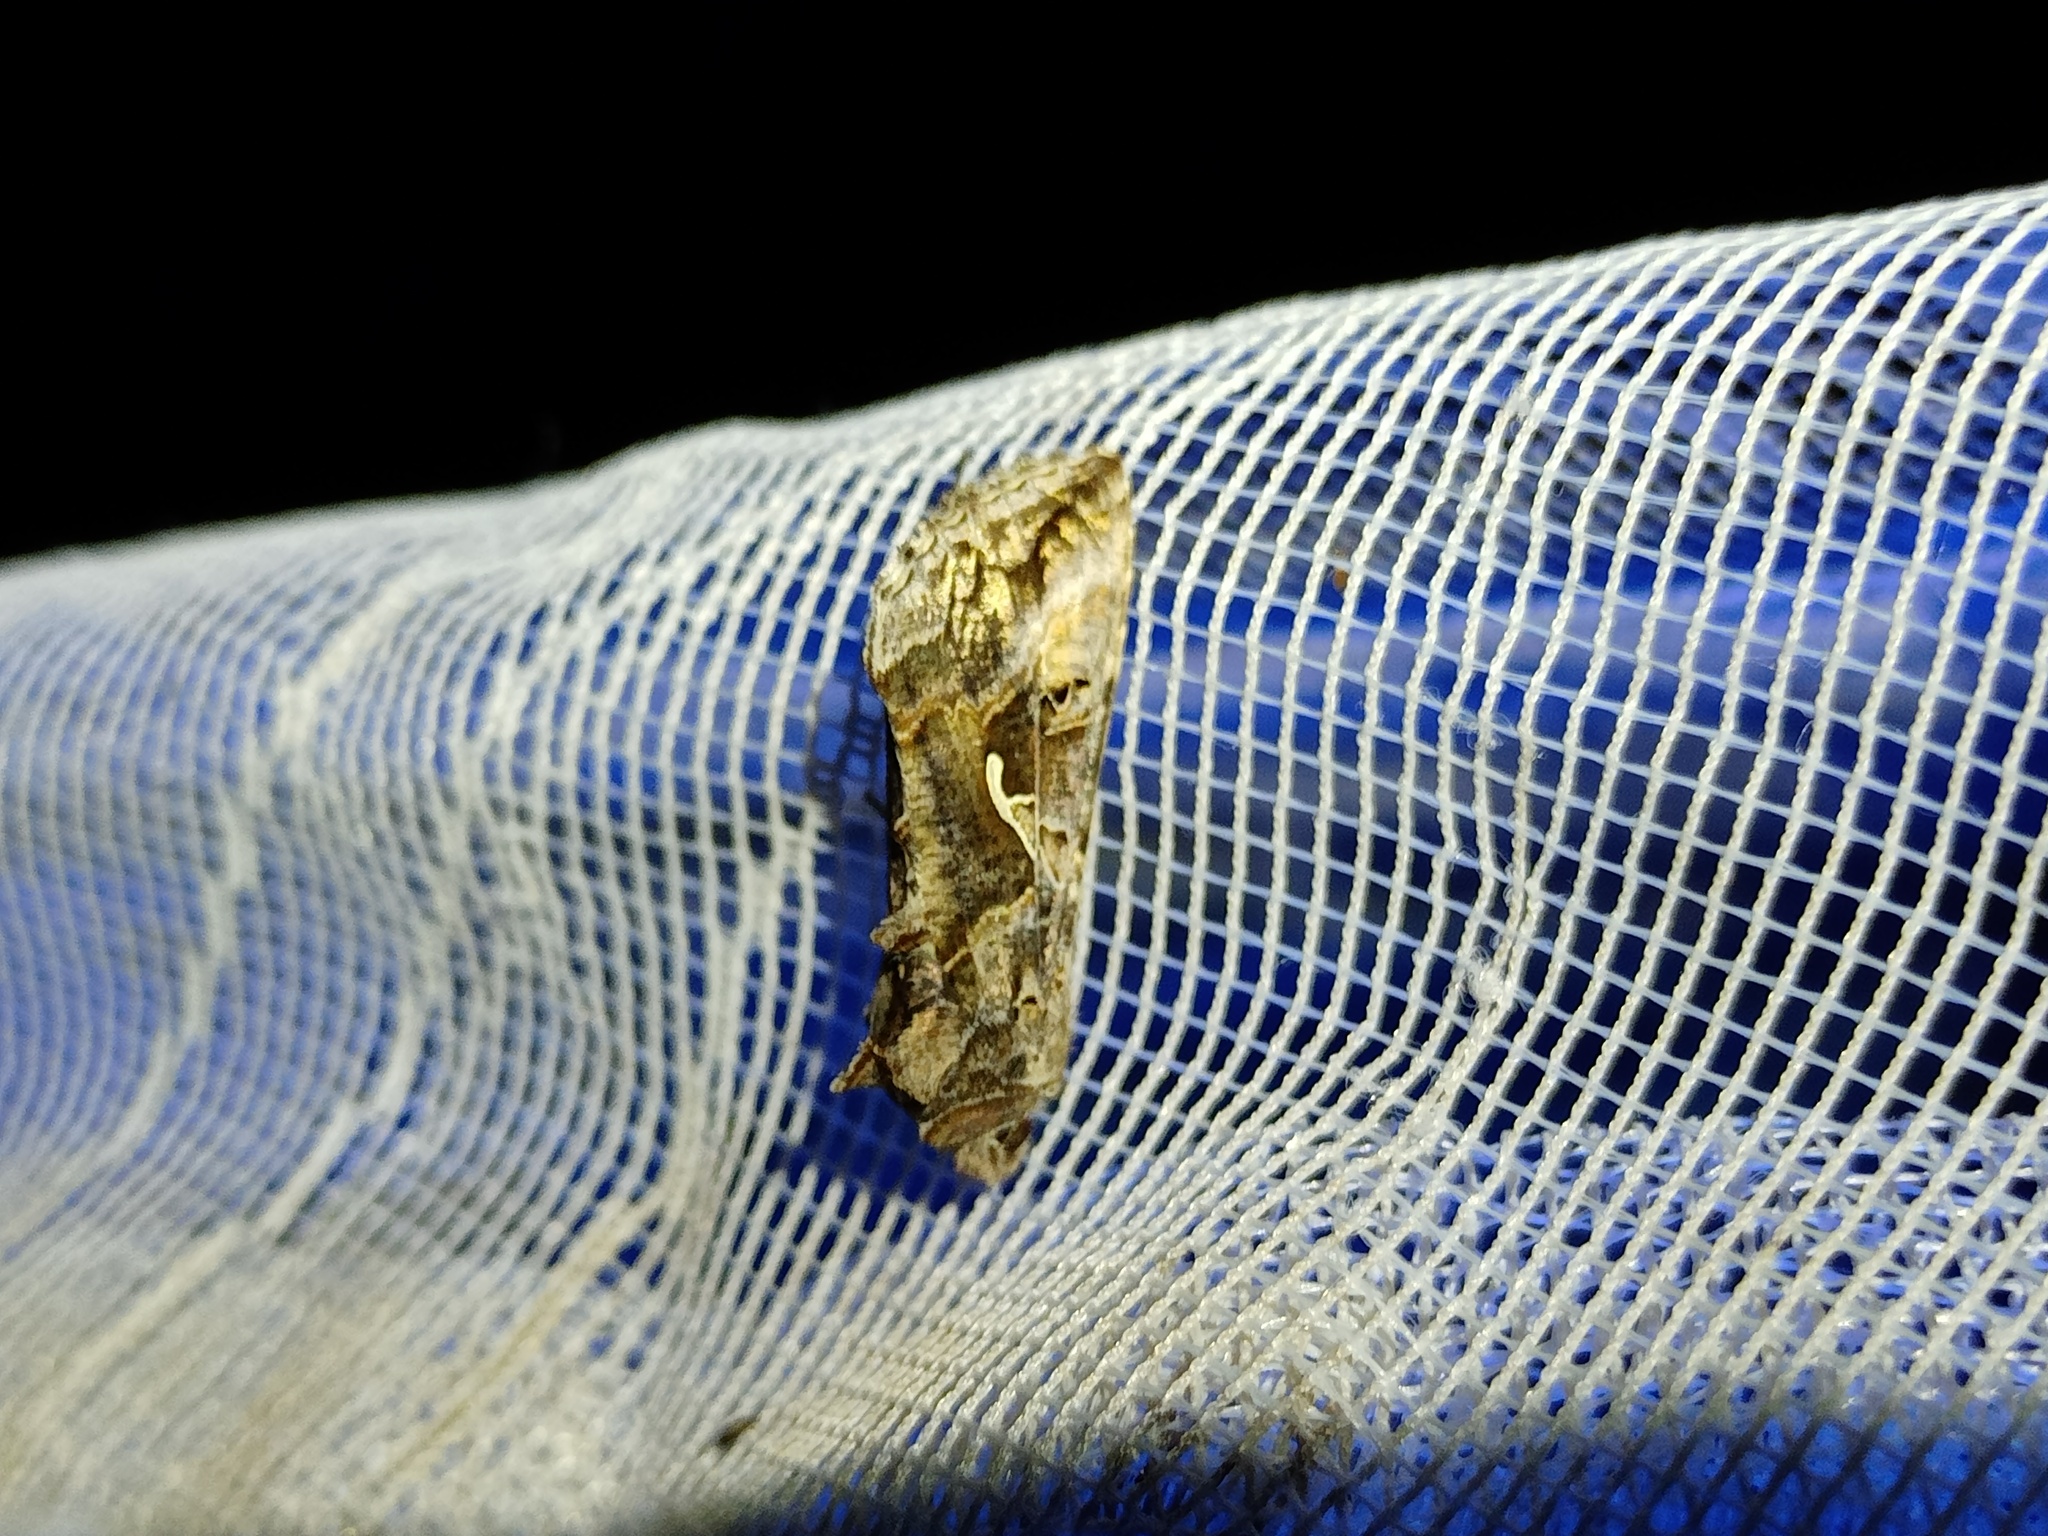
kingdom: Animalia
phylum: Arthropoda
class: Insecta
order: Lepidoptera
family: Noctuidae
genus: Autographa
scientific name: Autographa gamma
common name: Silver y
